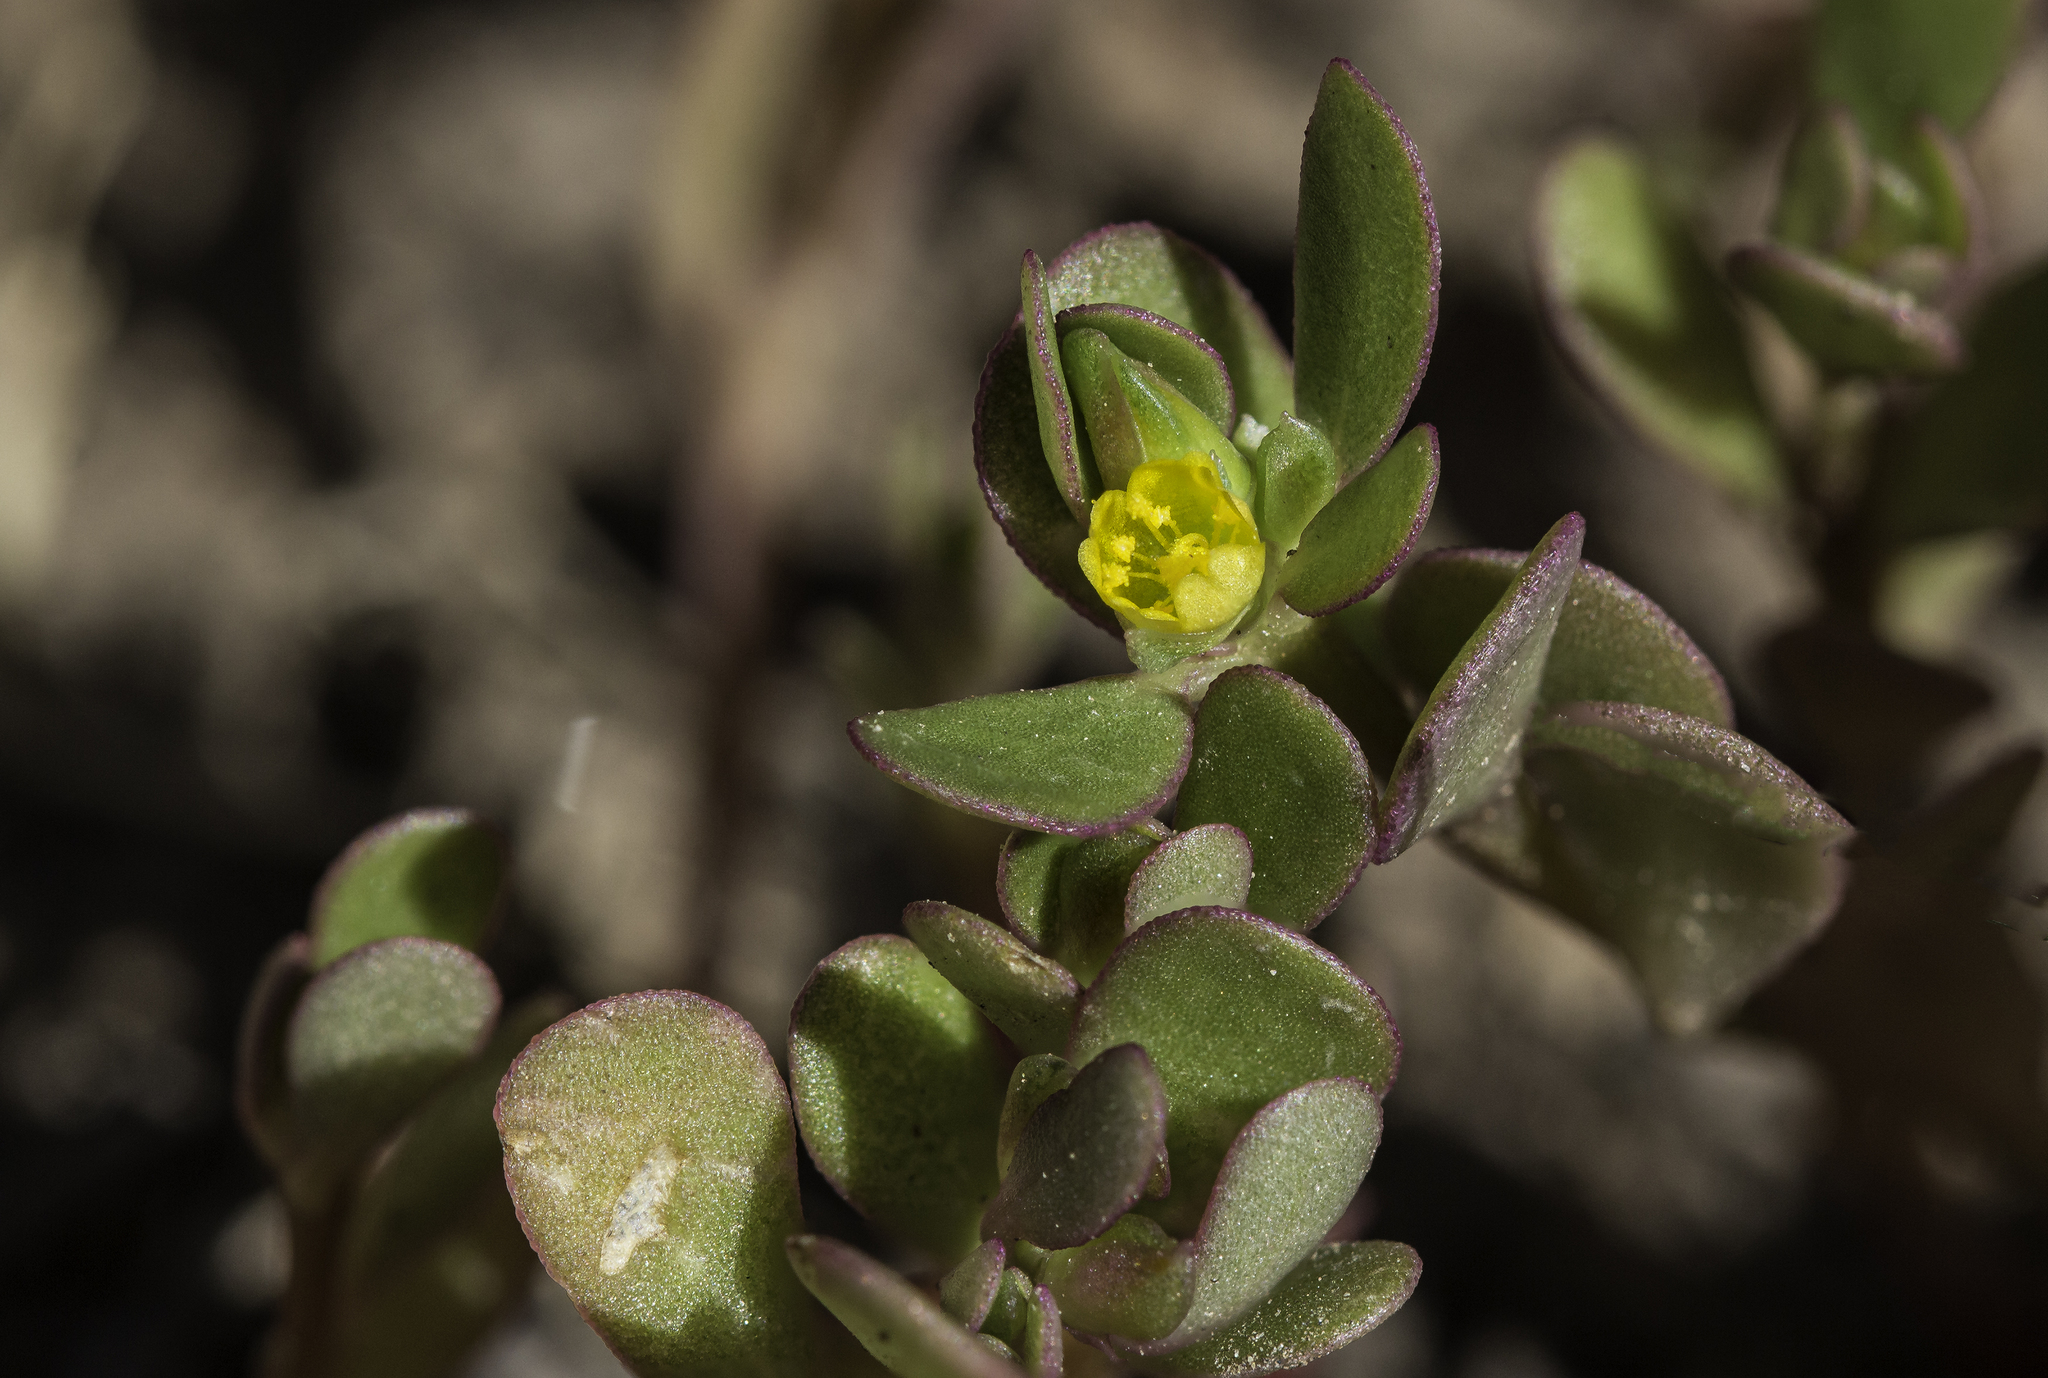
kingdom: Plantae
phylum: Tracheophyta
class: Magnoliopsida
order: Caryophyllales
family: Portulacaceae
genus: Portulaca
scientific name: Portulaca oleracea
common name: Common purslane
